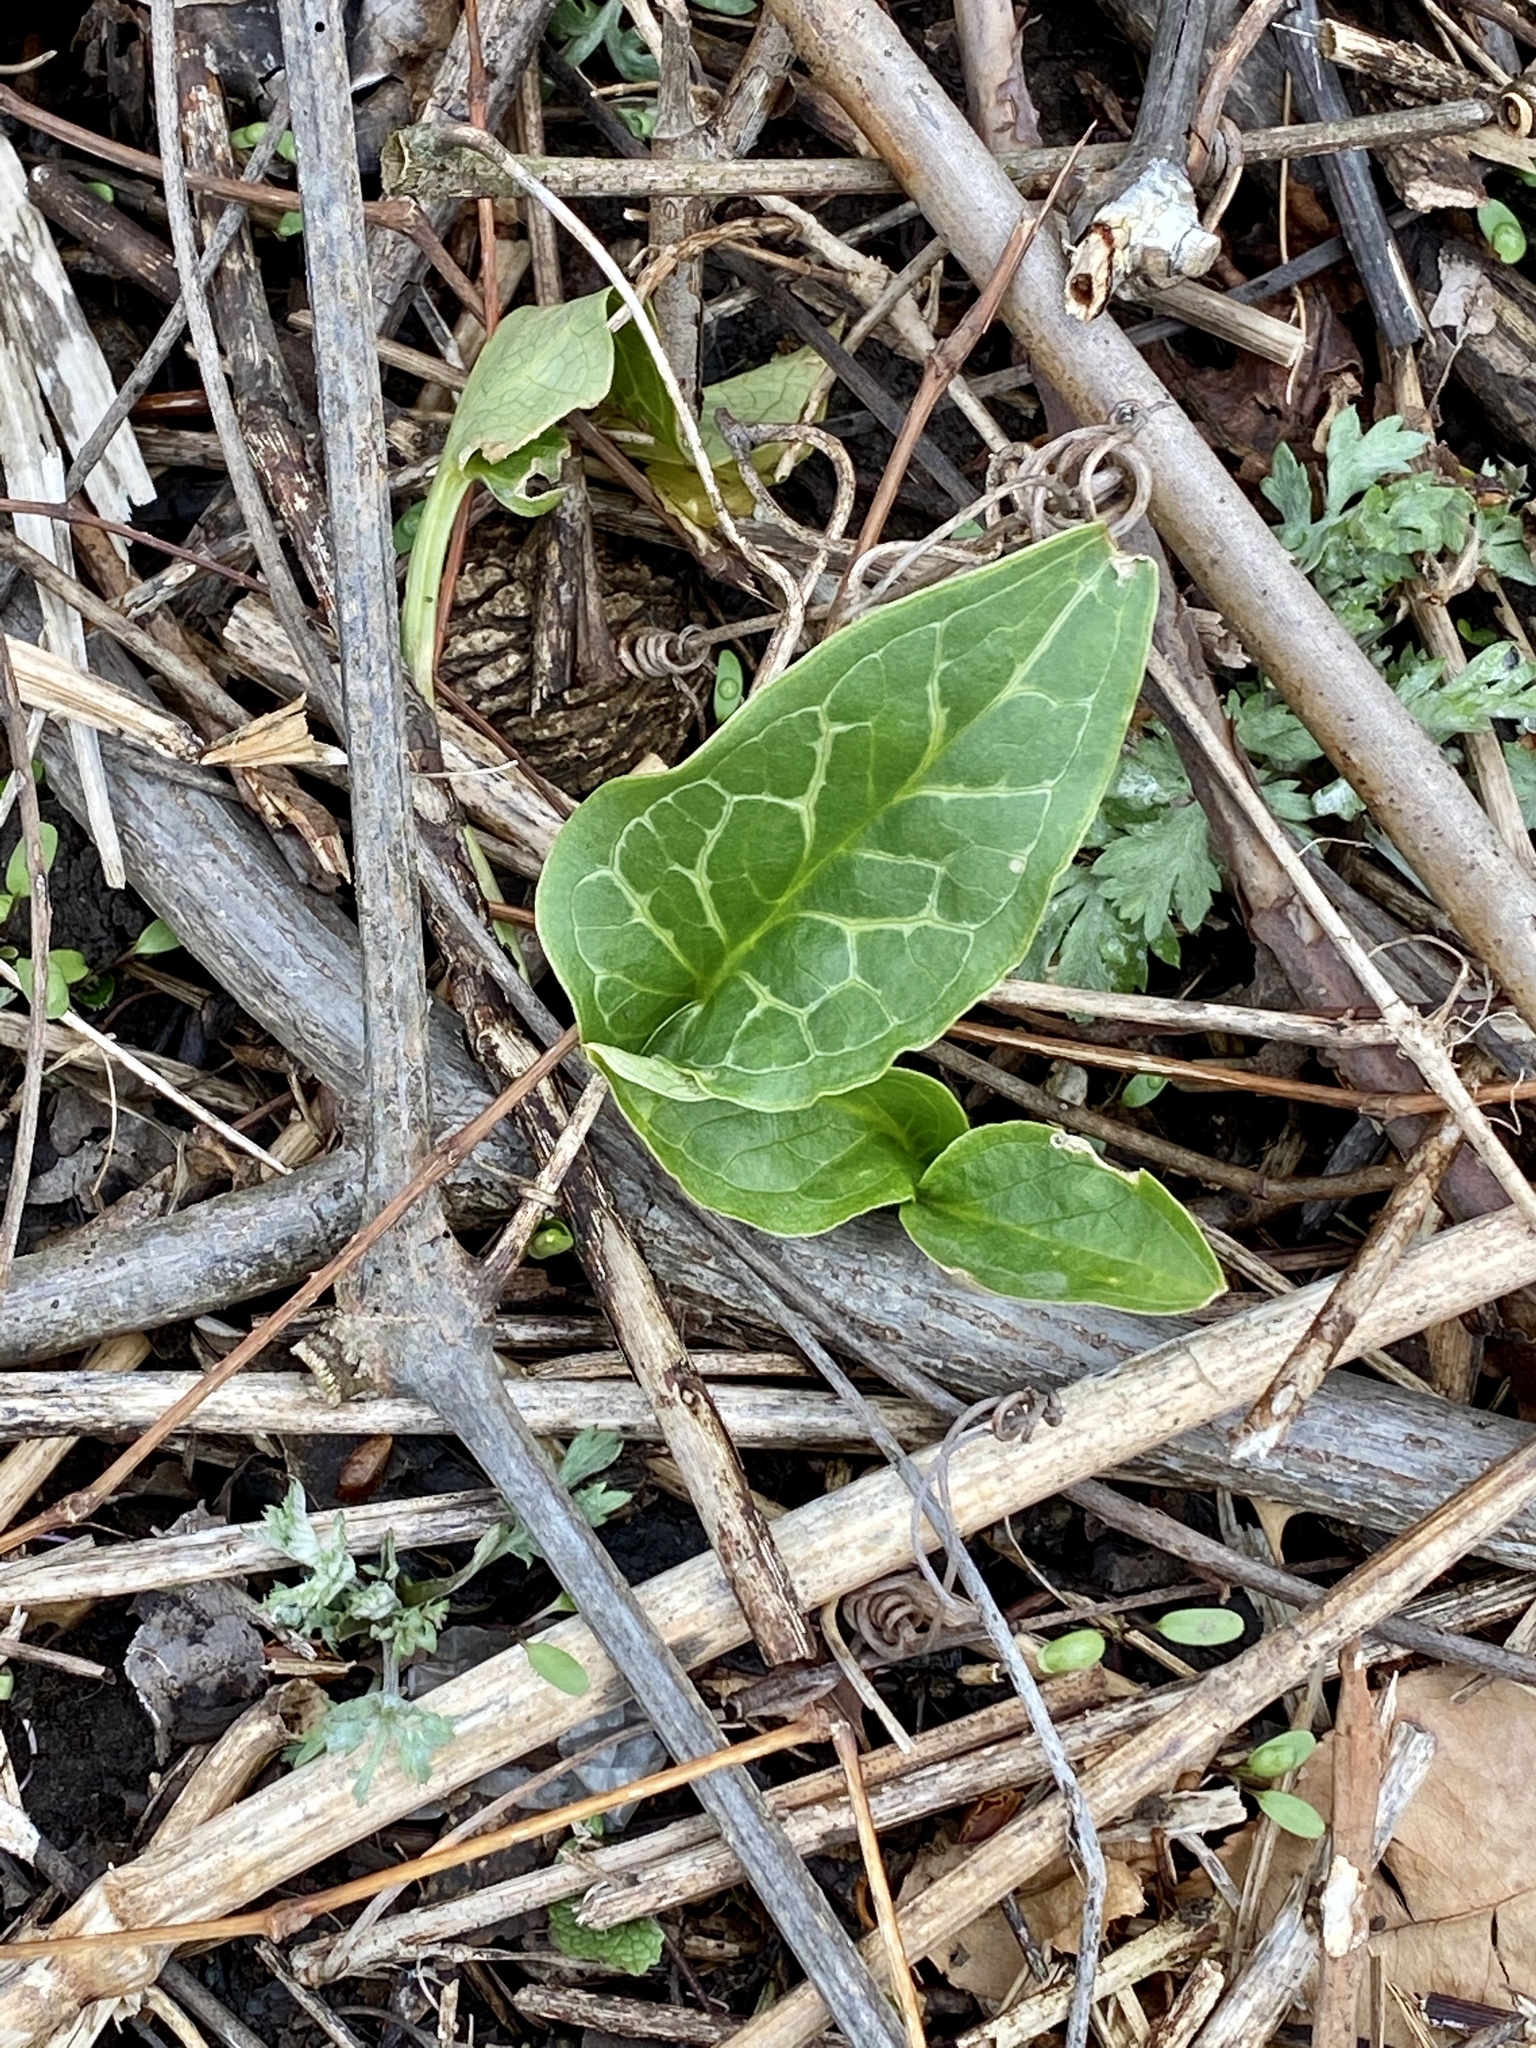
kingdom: Plantae
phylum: Tracheophyta
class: Liliopsida
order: Alismatales
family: Araceae
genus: Arum
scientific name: Arum italicum
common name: Italian lords-and-ladies
